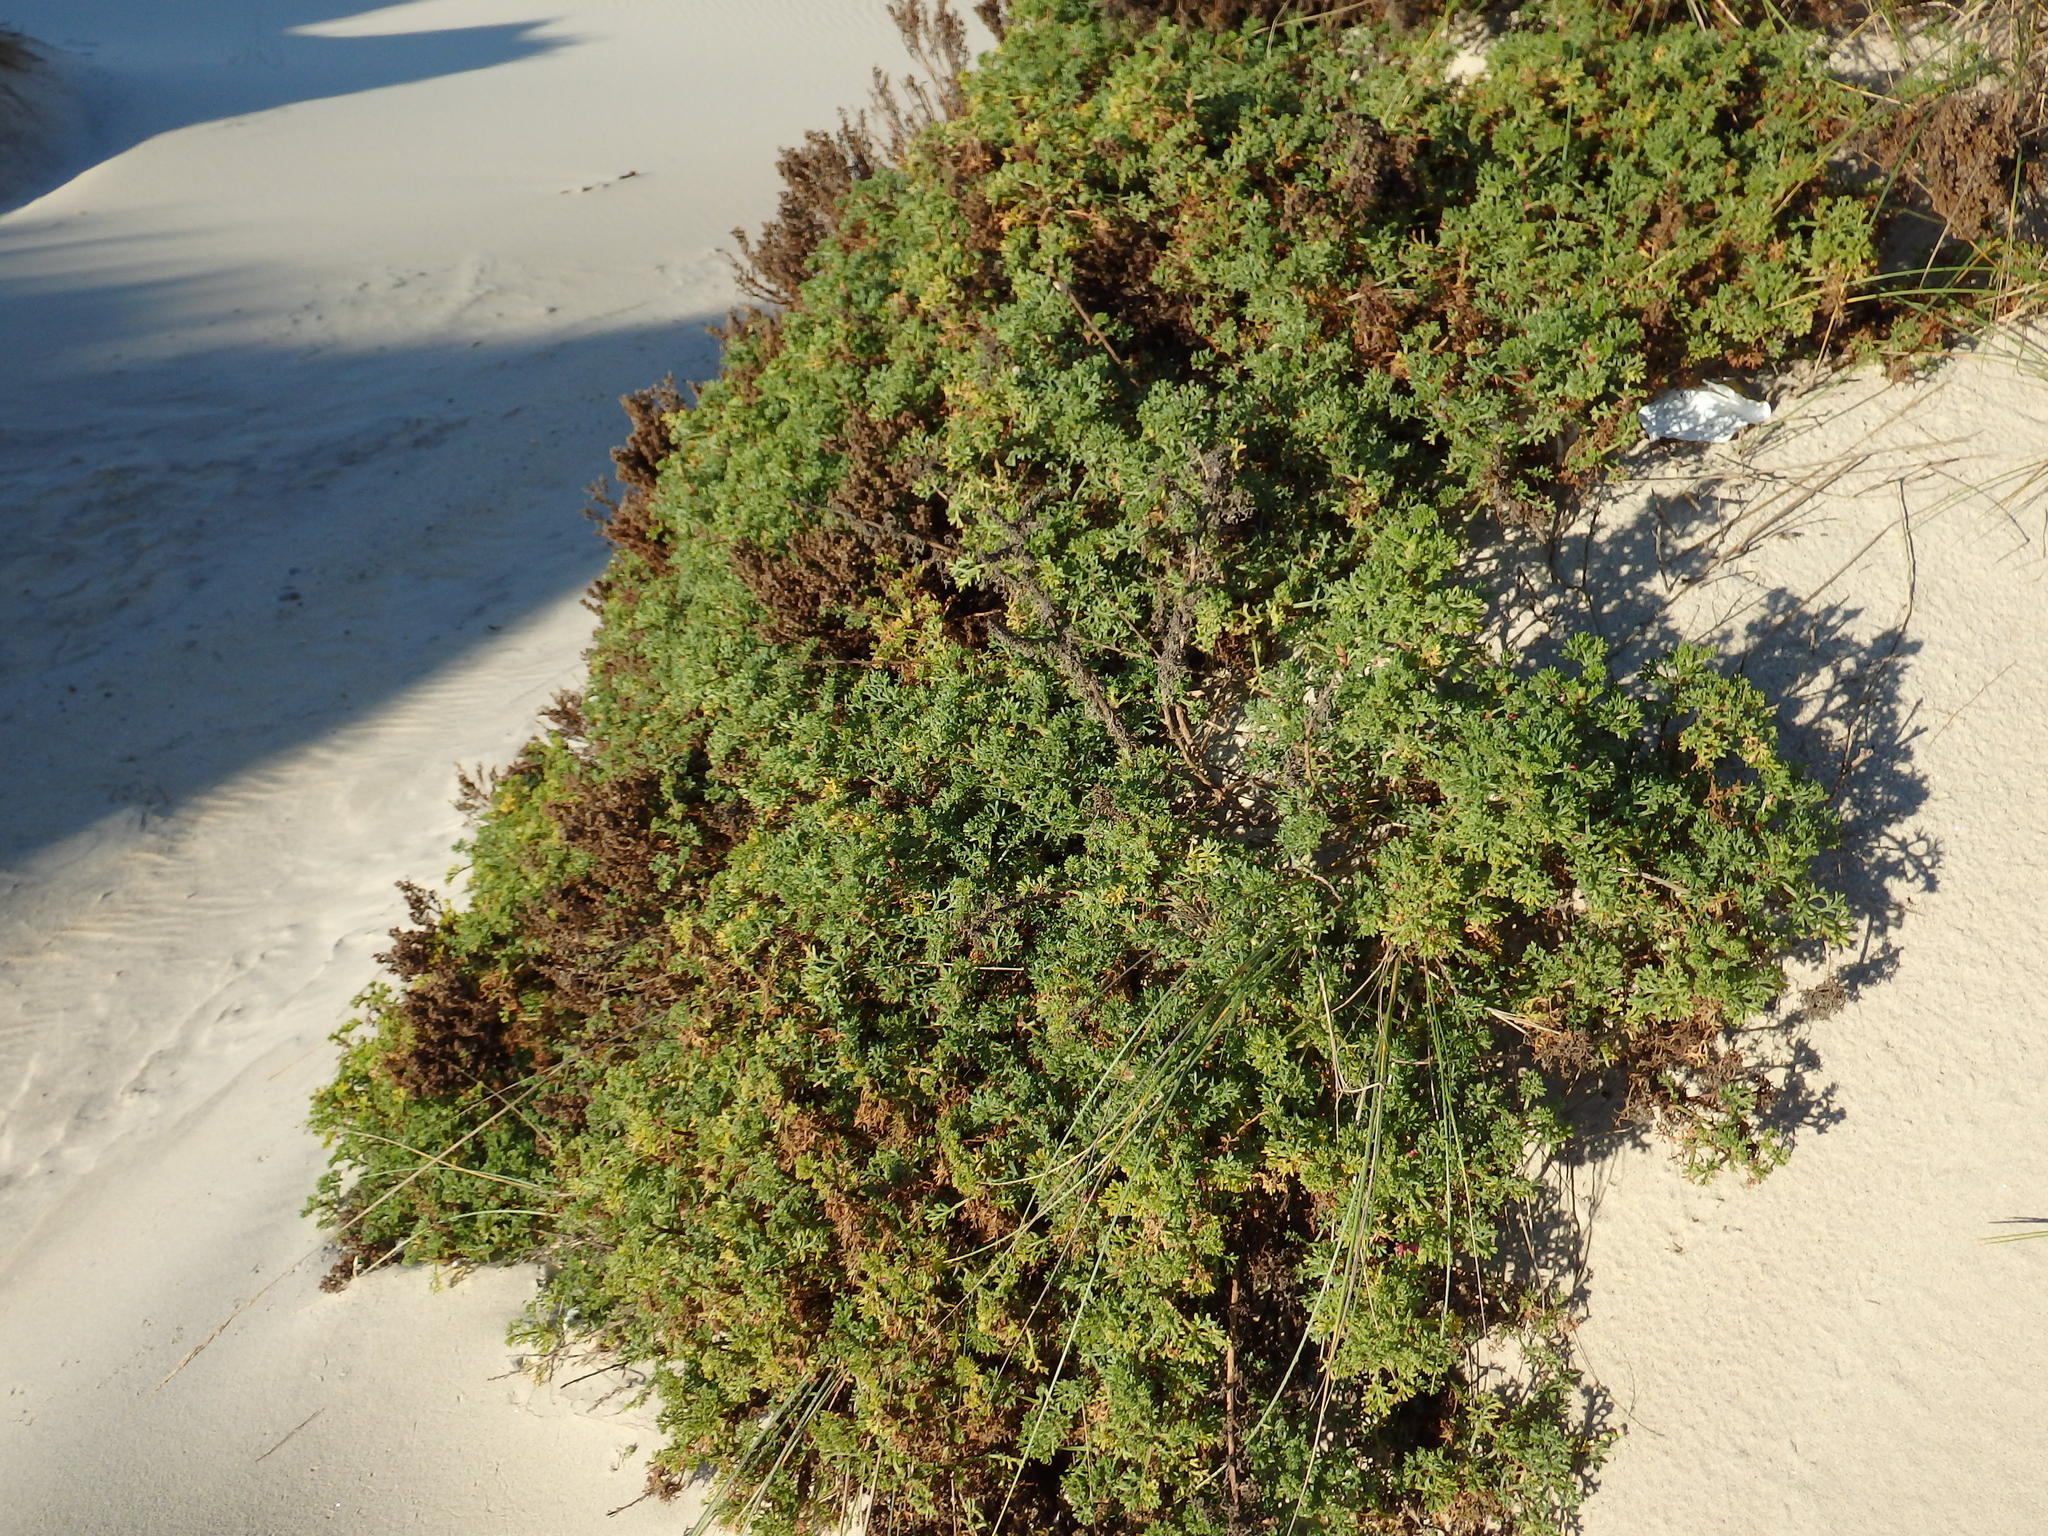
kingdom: Plantae
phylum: Tracheophyta
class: Magnoliopsida
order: Asterales
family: Asteraceae
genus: Artemisia
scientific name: Artemisia crithmifolia
